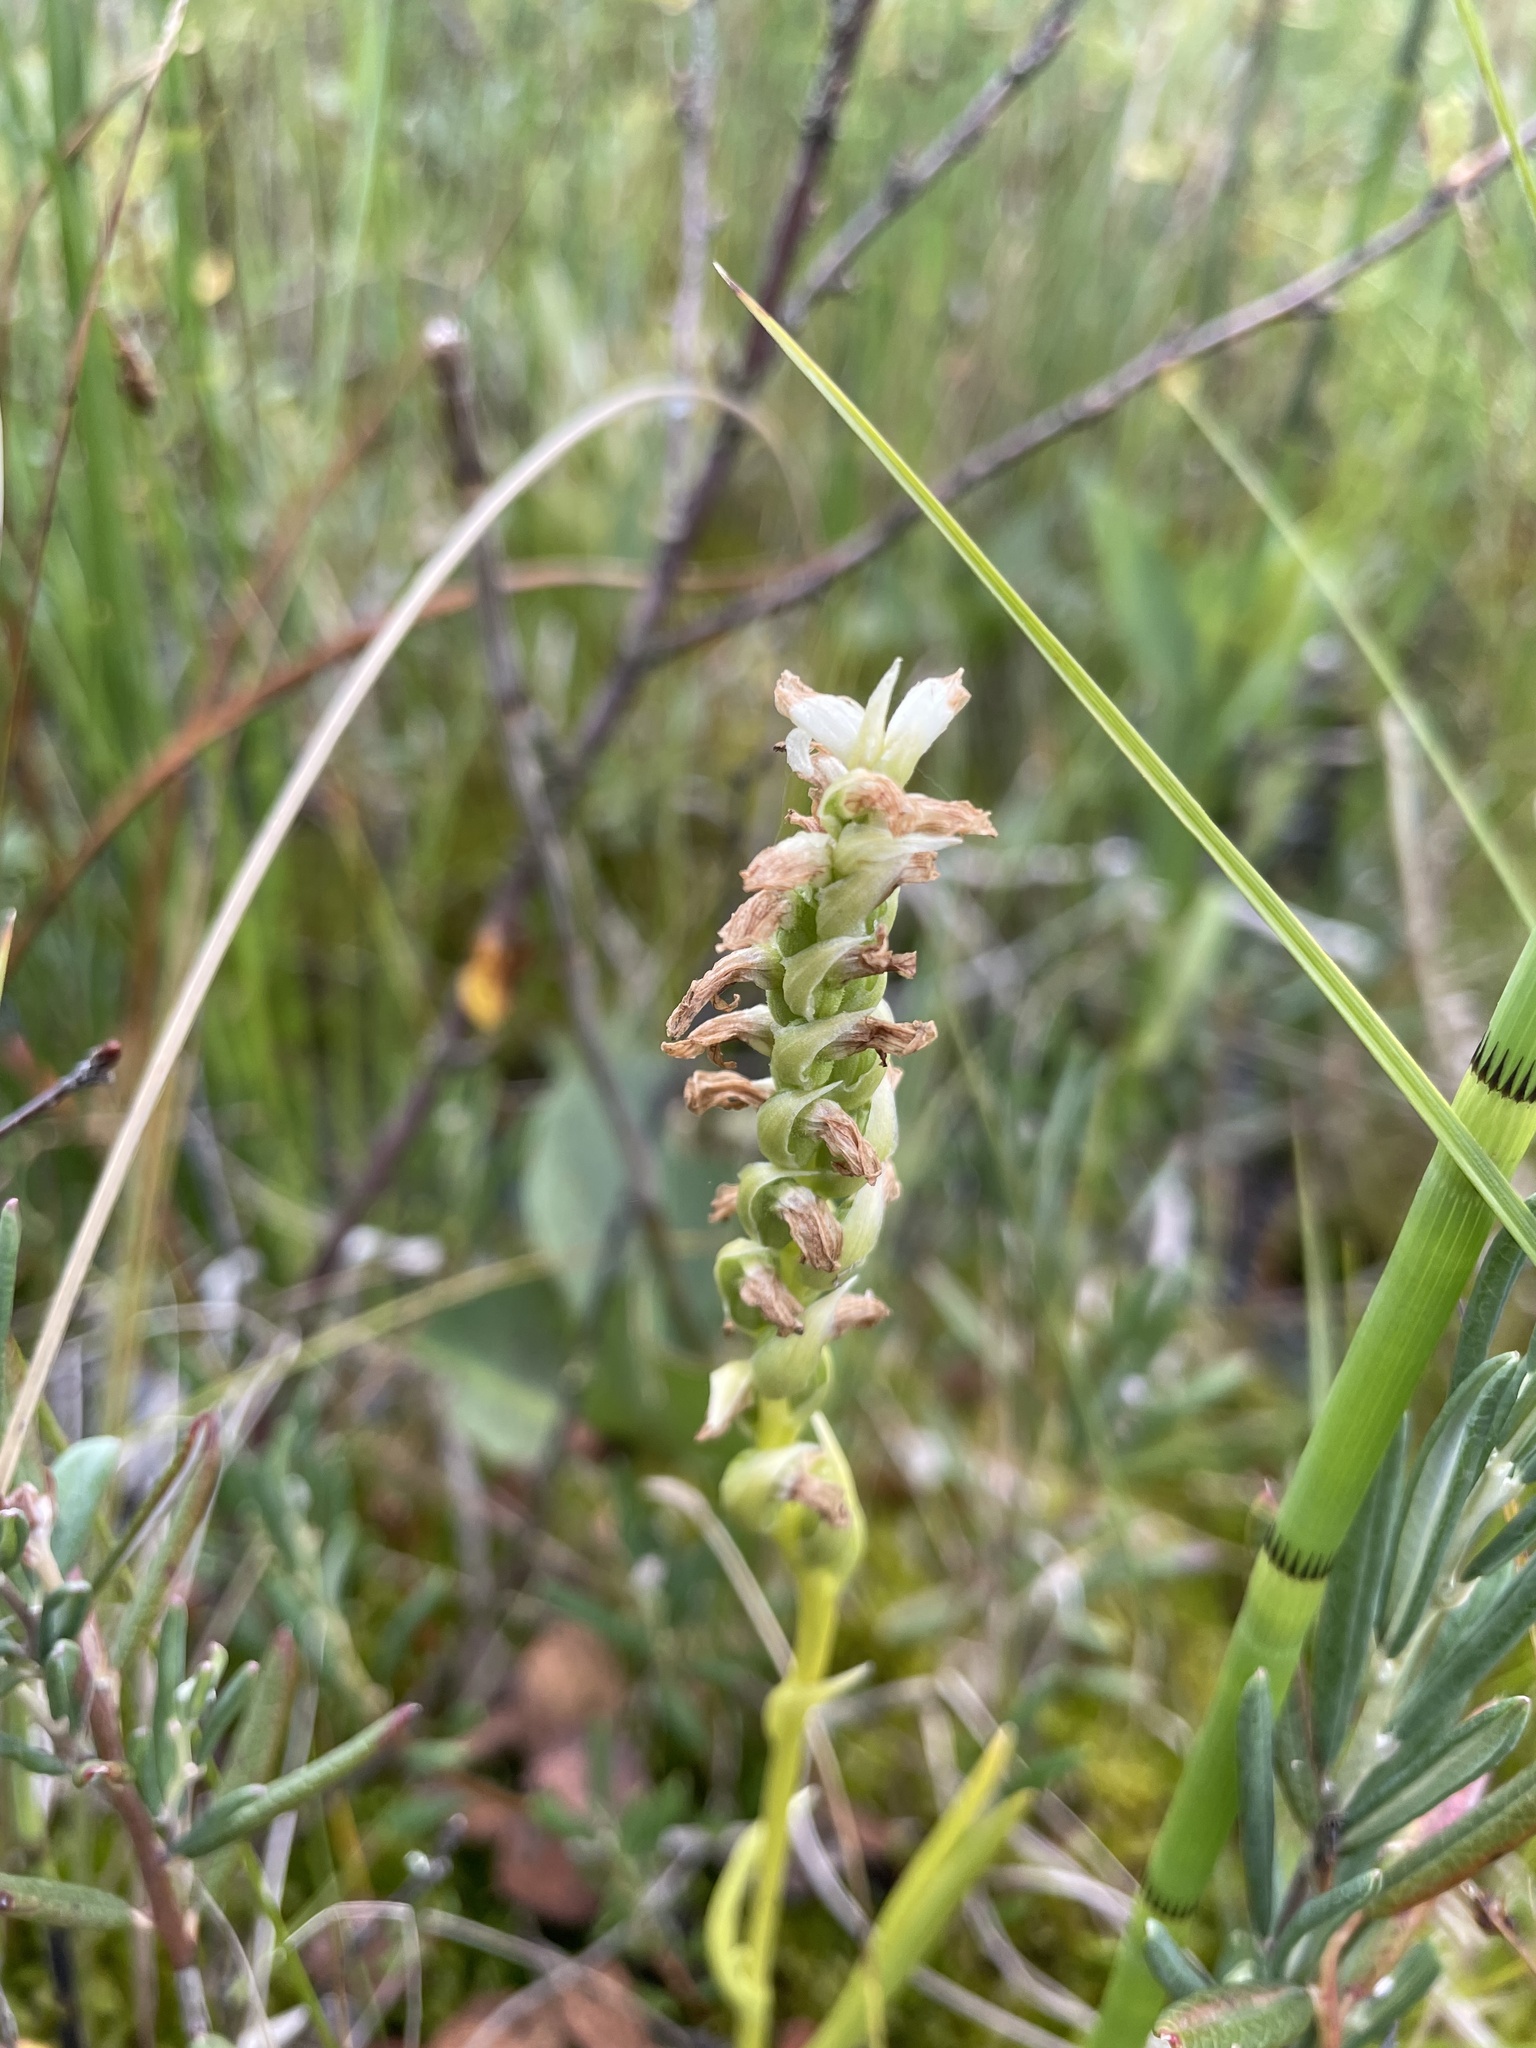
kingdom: Plantae
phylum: Tracheophyta
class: Liliopsida
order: Asparagales
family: Orchidaceae
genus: Spiranthes
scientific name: Spiranthes romanzoffiana
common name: Irish lady's-tresses
